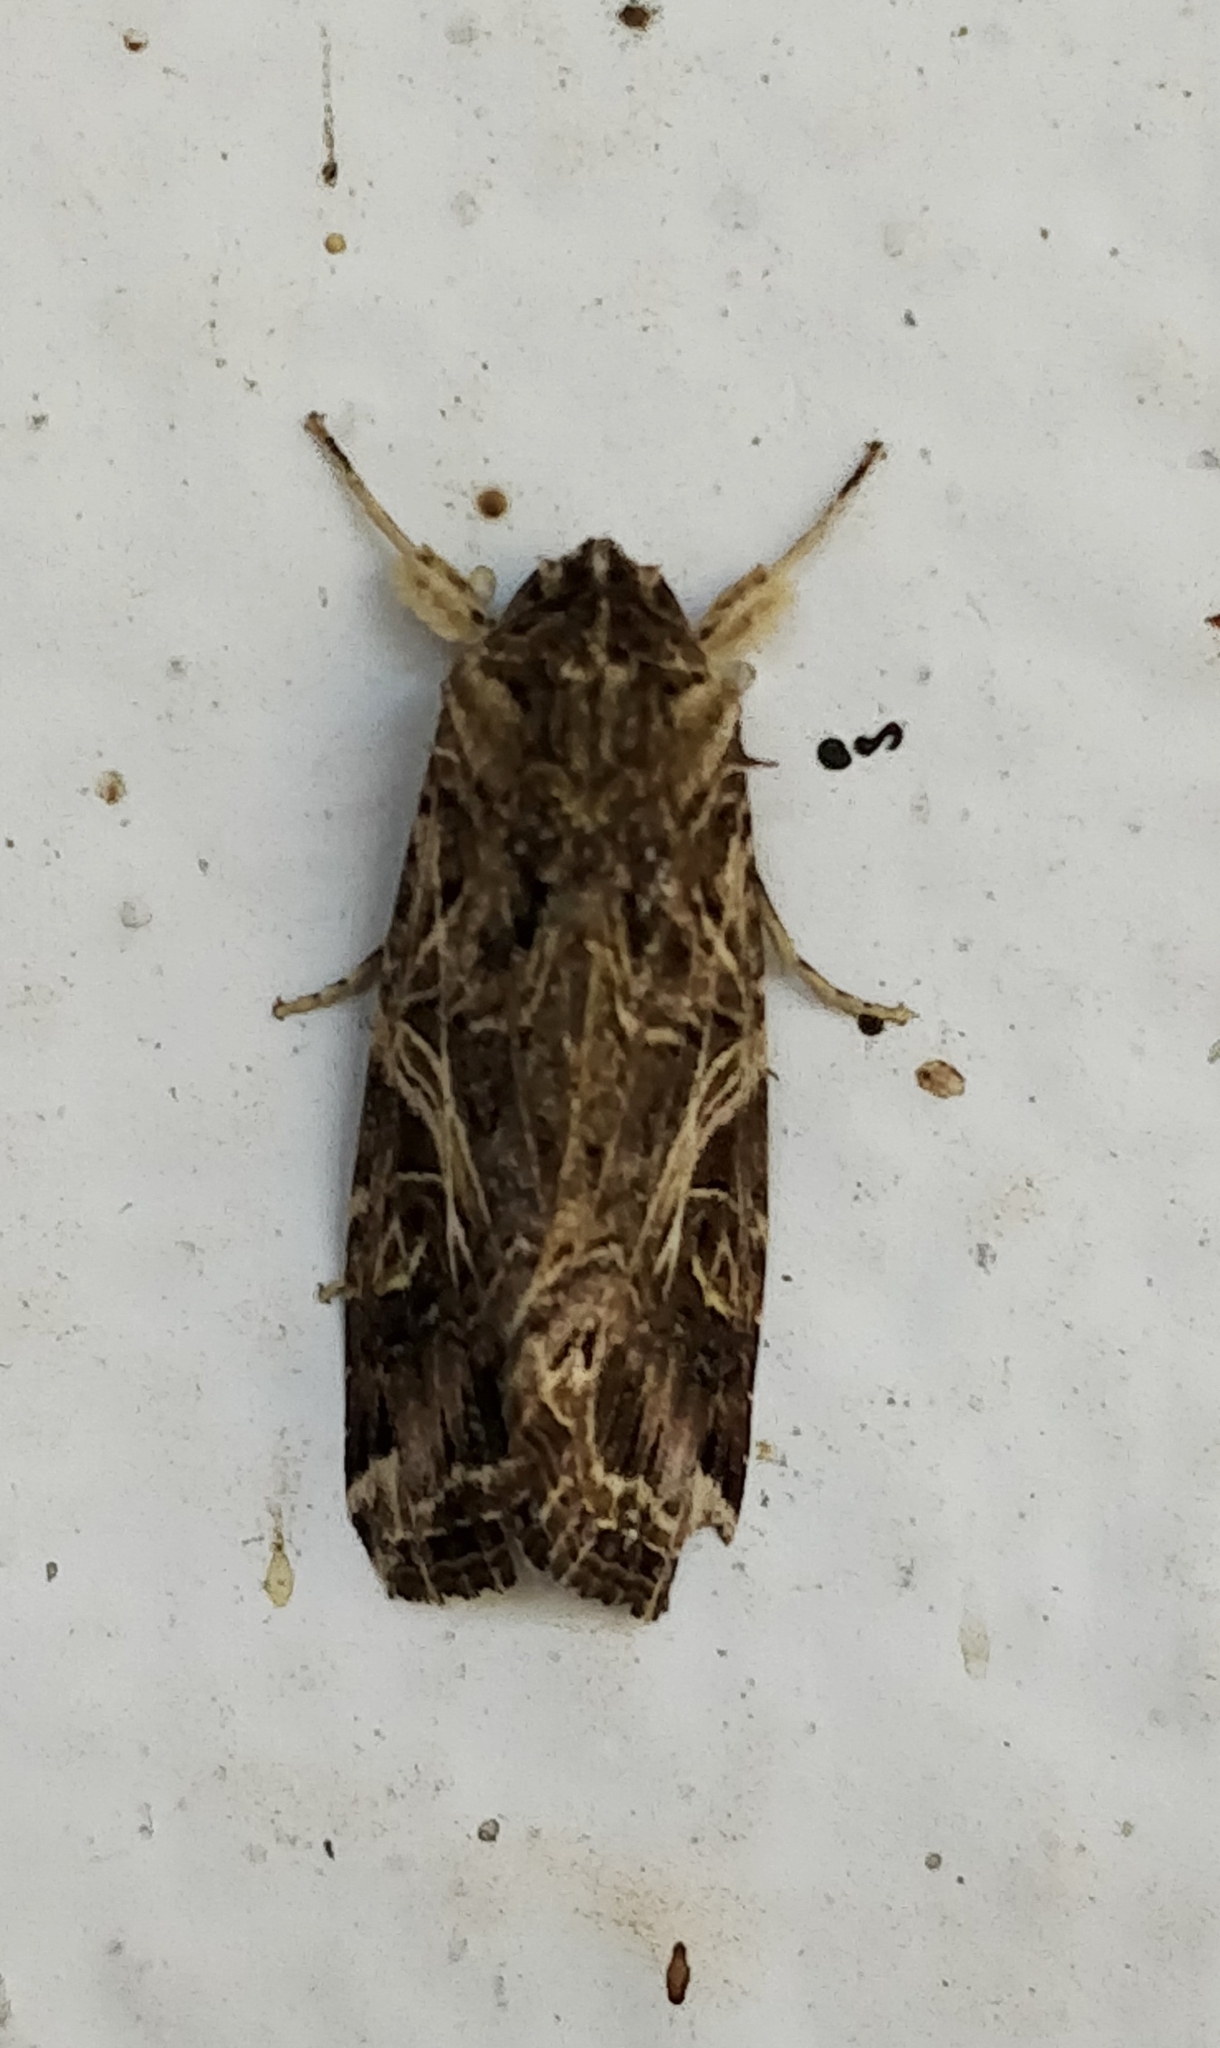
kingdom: Animalia
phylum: Arthropoda
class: Insecta
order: Lepidoptera
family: Noctuidae
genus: Spodoptera
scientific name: Spodoptera litura
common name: Asian cotton leafworm
